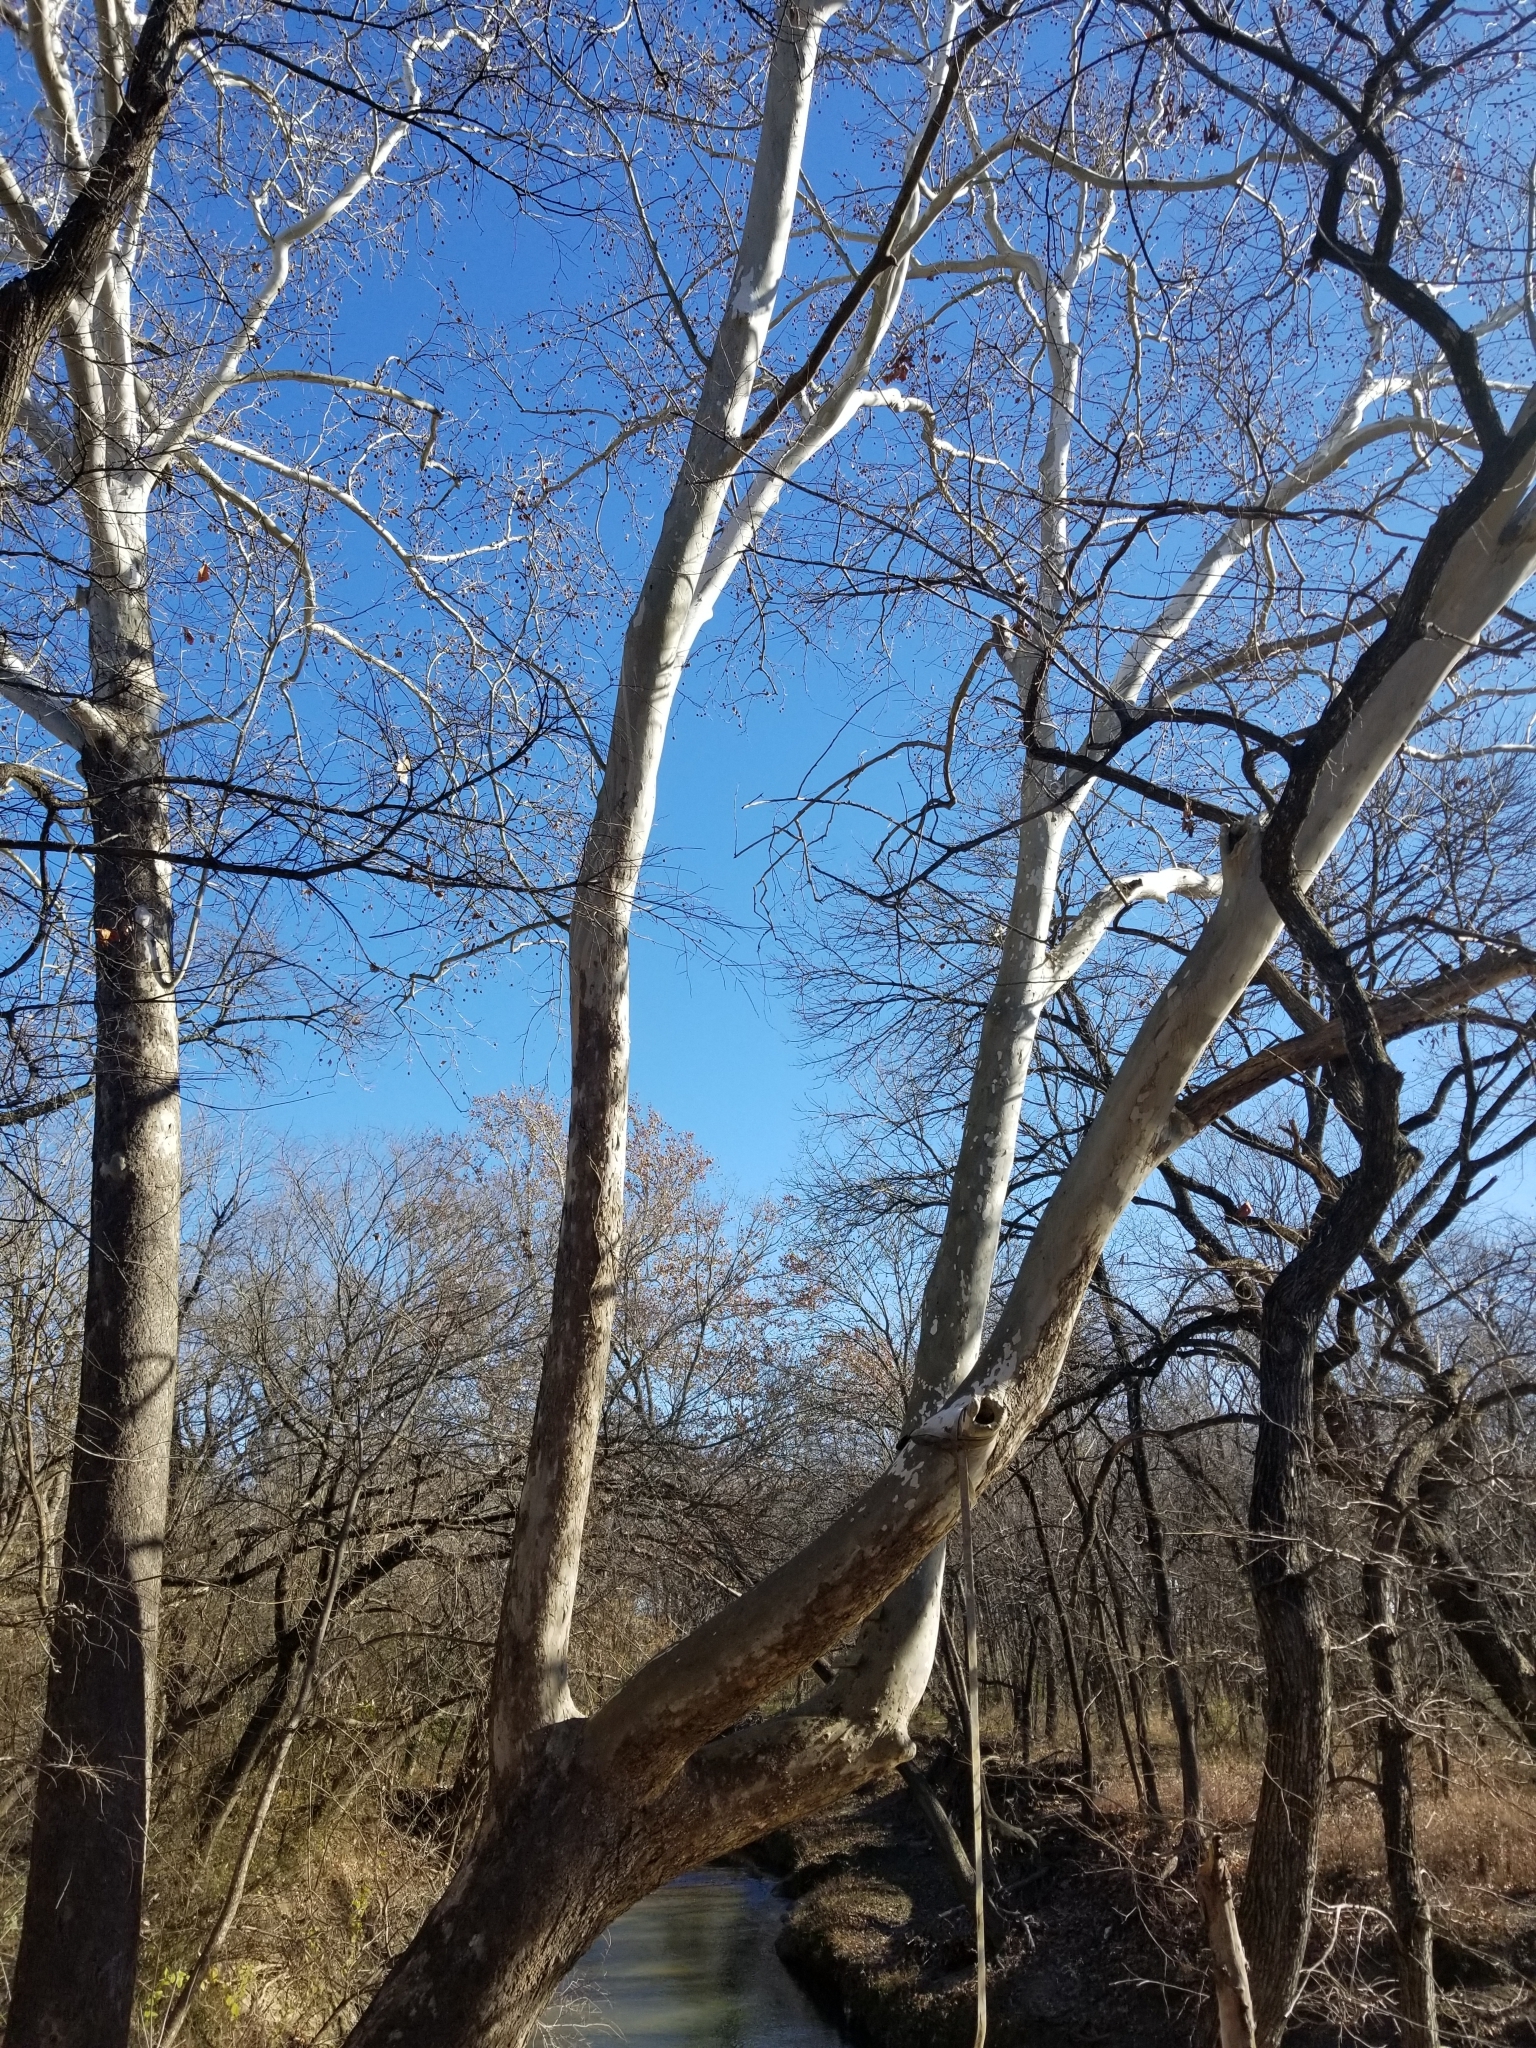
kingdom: Plantae
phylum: Tracheophyta
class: Magnoliopsida
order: Proteales
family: Platanaceae
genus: Platanus
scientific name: Platanus occidentalis
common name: American sycamore
